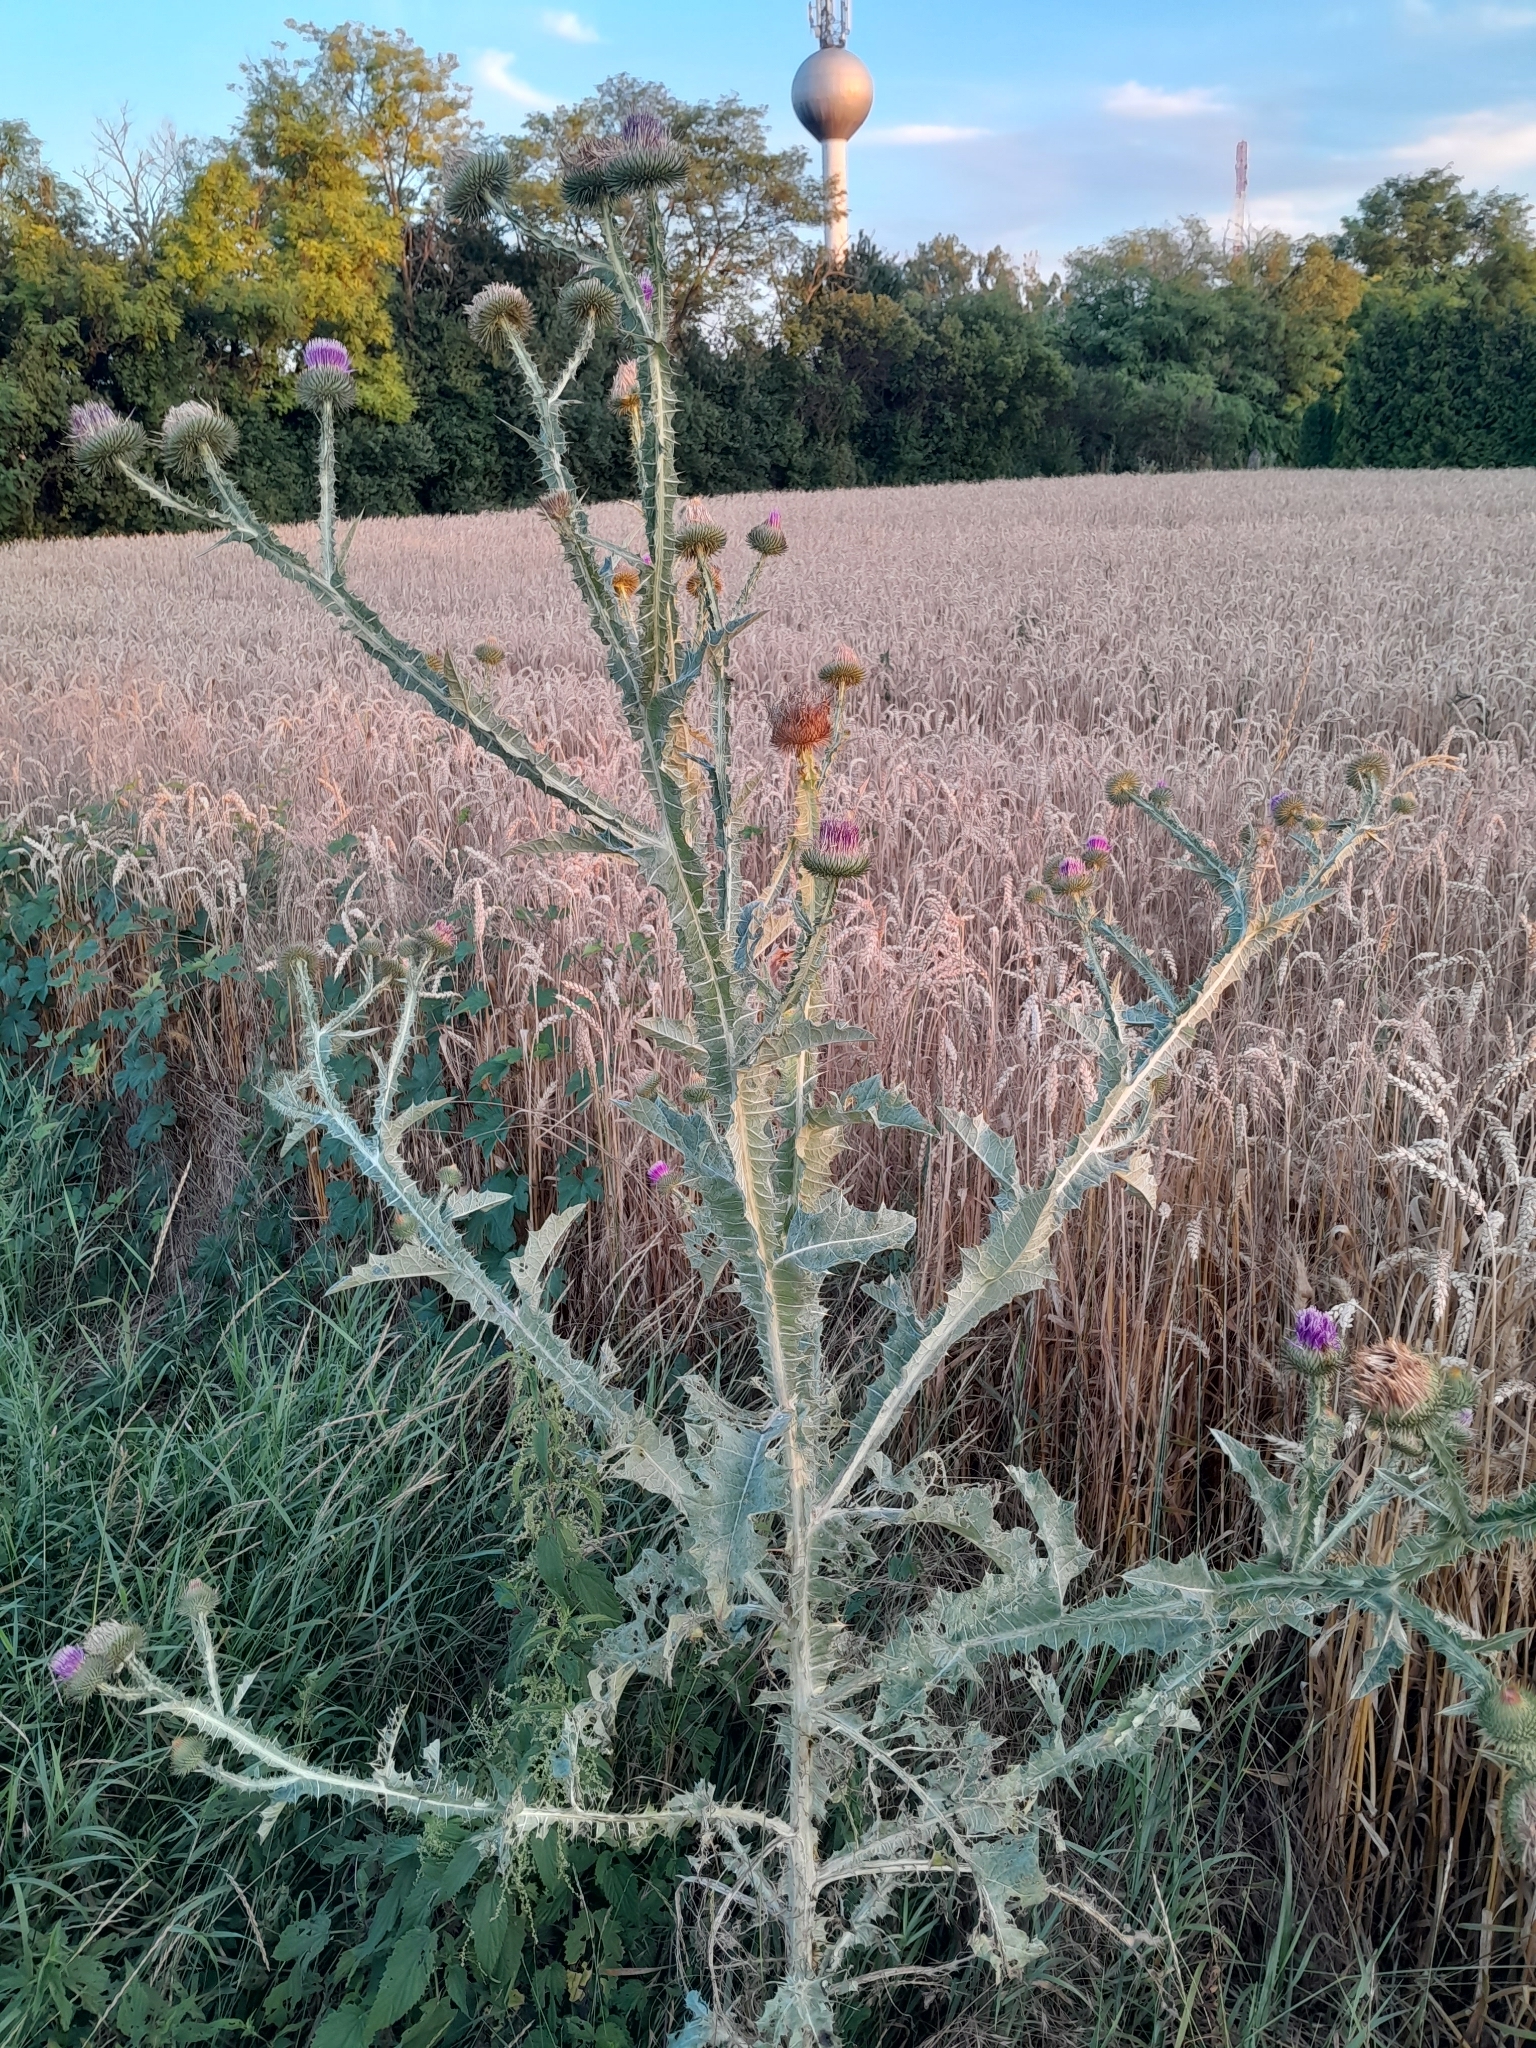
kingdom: Plantae
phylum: Tracheophyta
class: Magnoliopsida
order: Asterales
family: Asteraceae
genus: Onopordum
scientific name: Onopordum acanthium
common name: Scotch thistle
